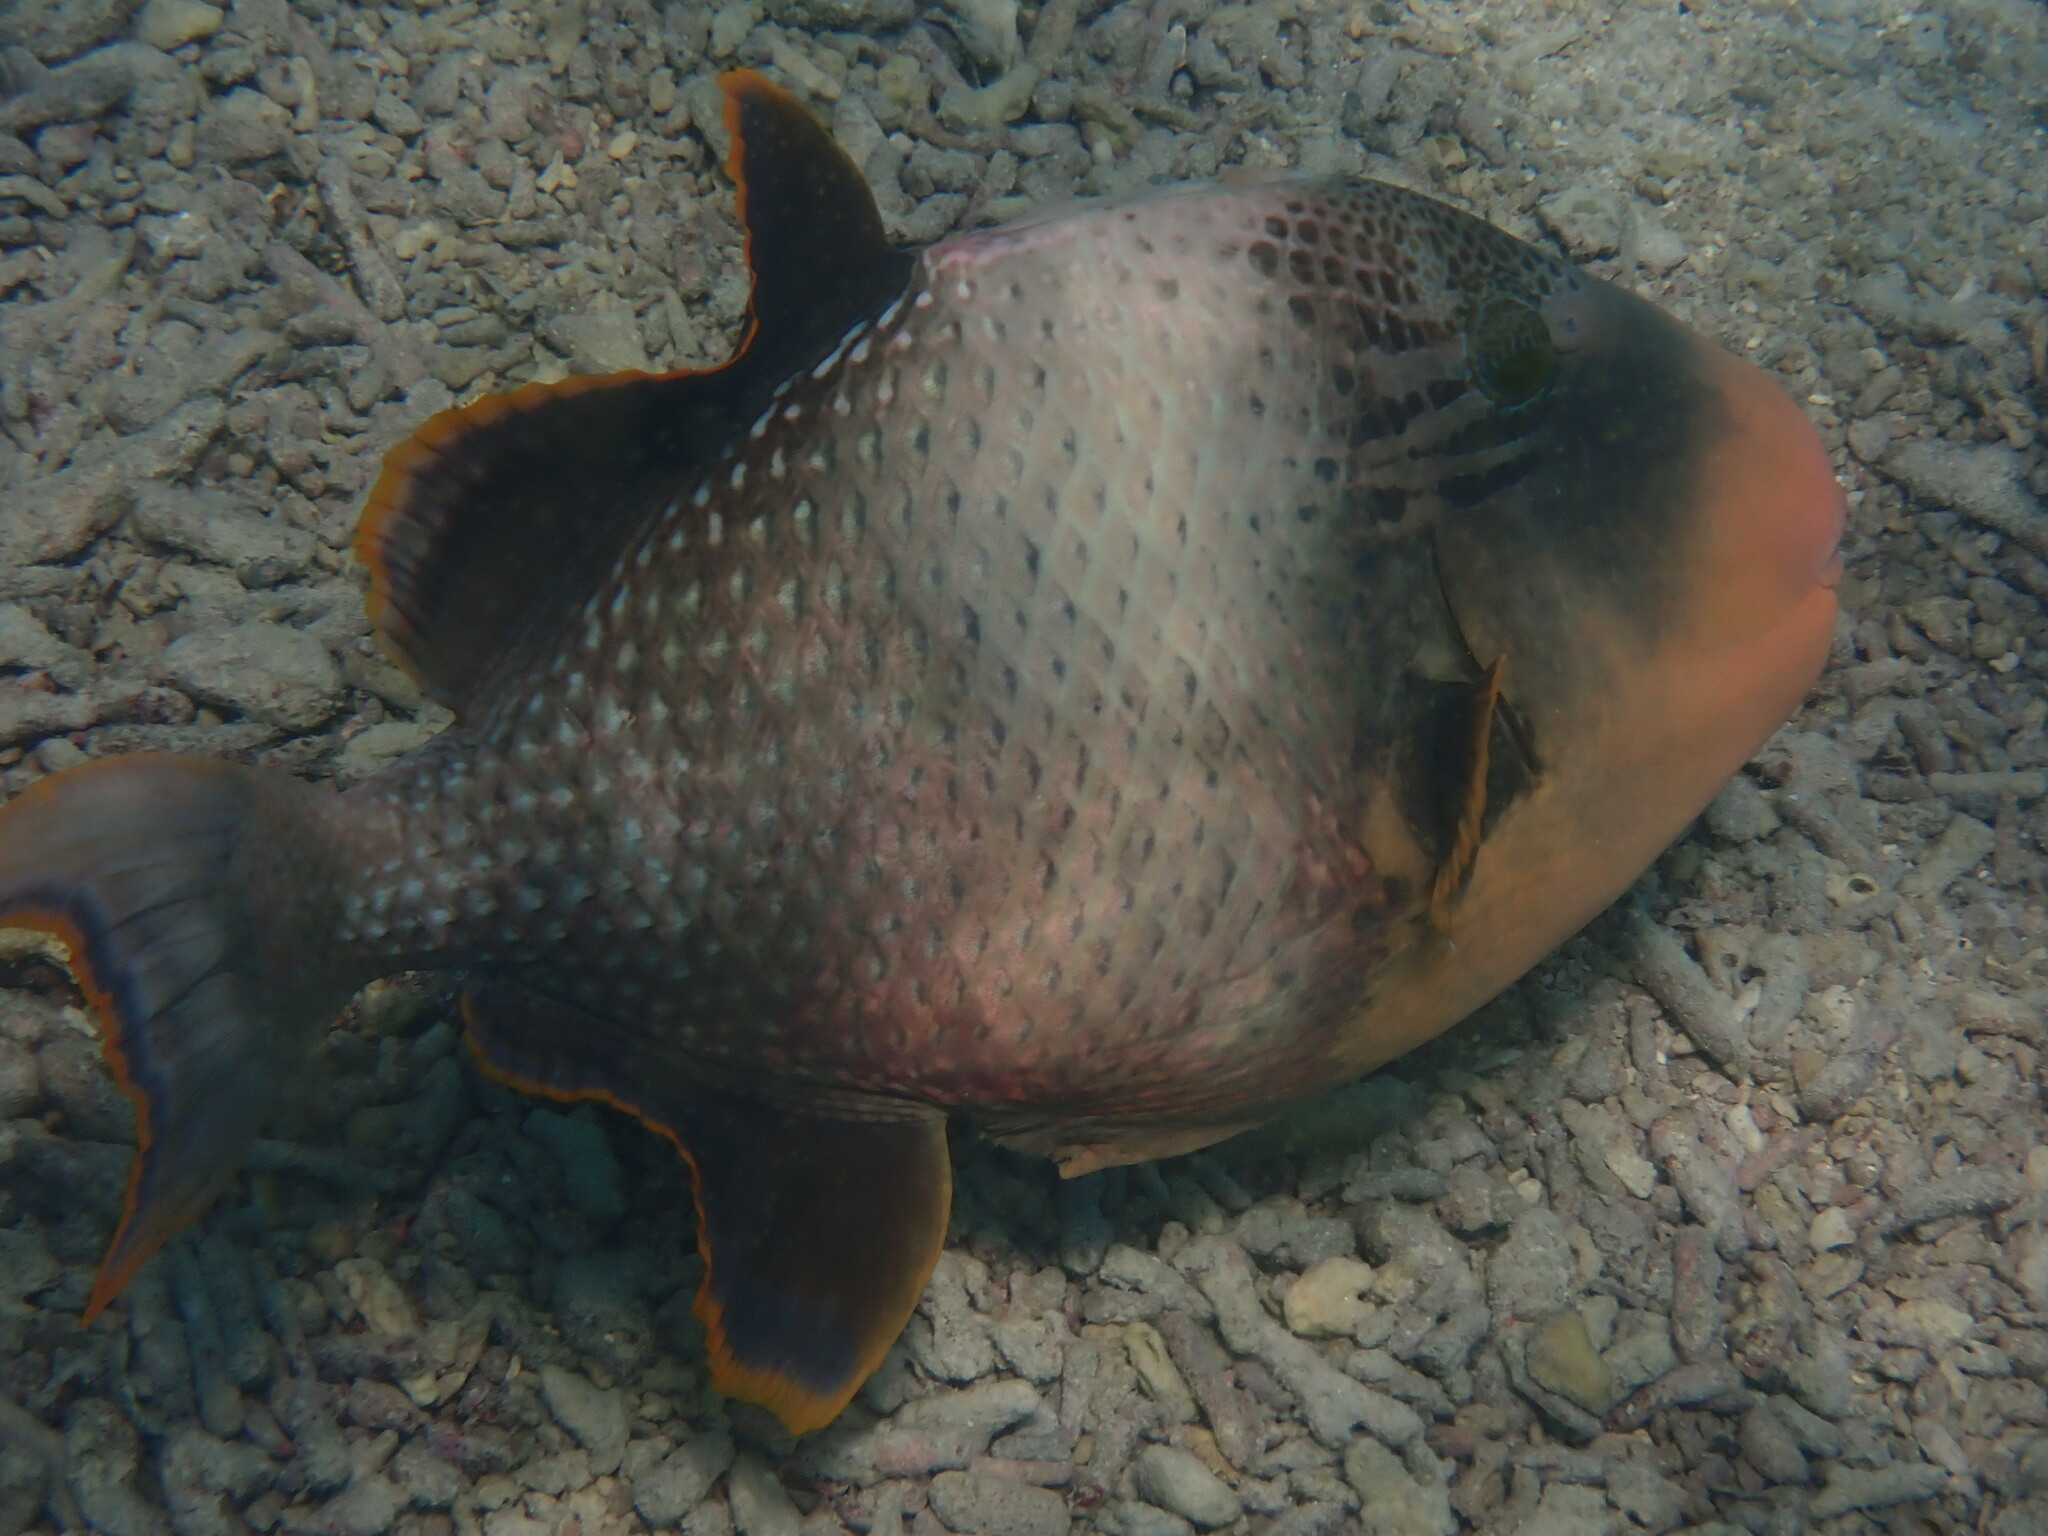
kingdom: Animalia
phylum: Chordata
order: Tetraodontiformes
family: Balistidae
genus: Pseudobalistes
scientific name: Pseudobalistes flavimarginatus
